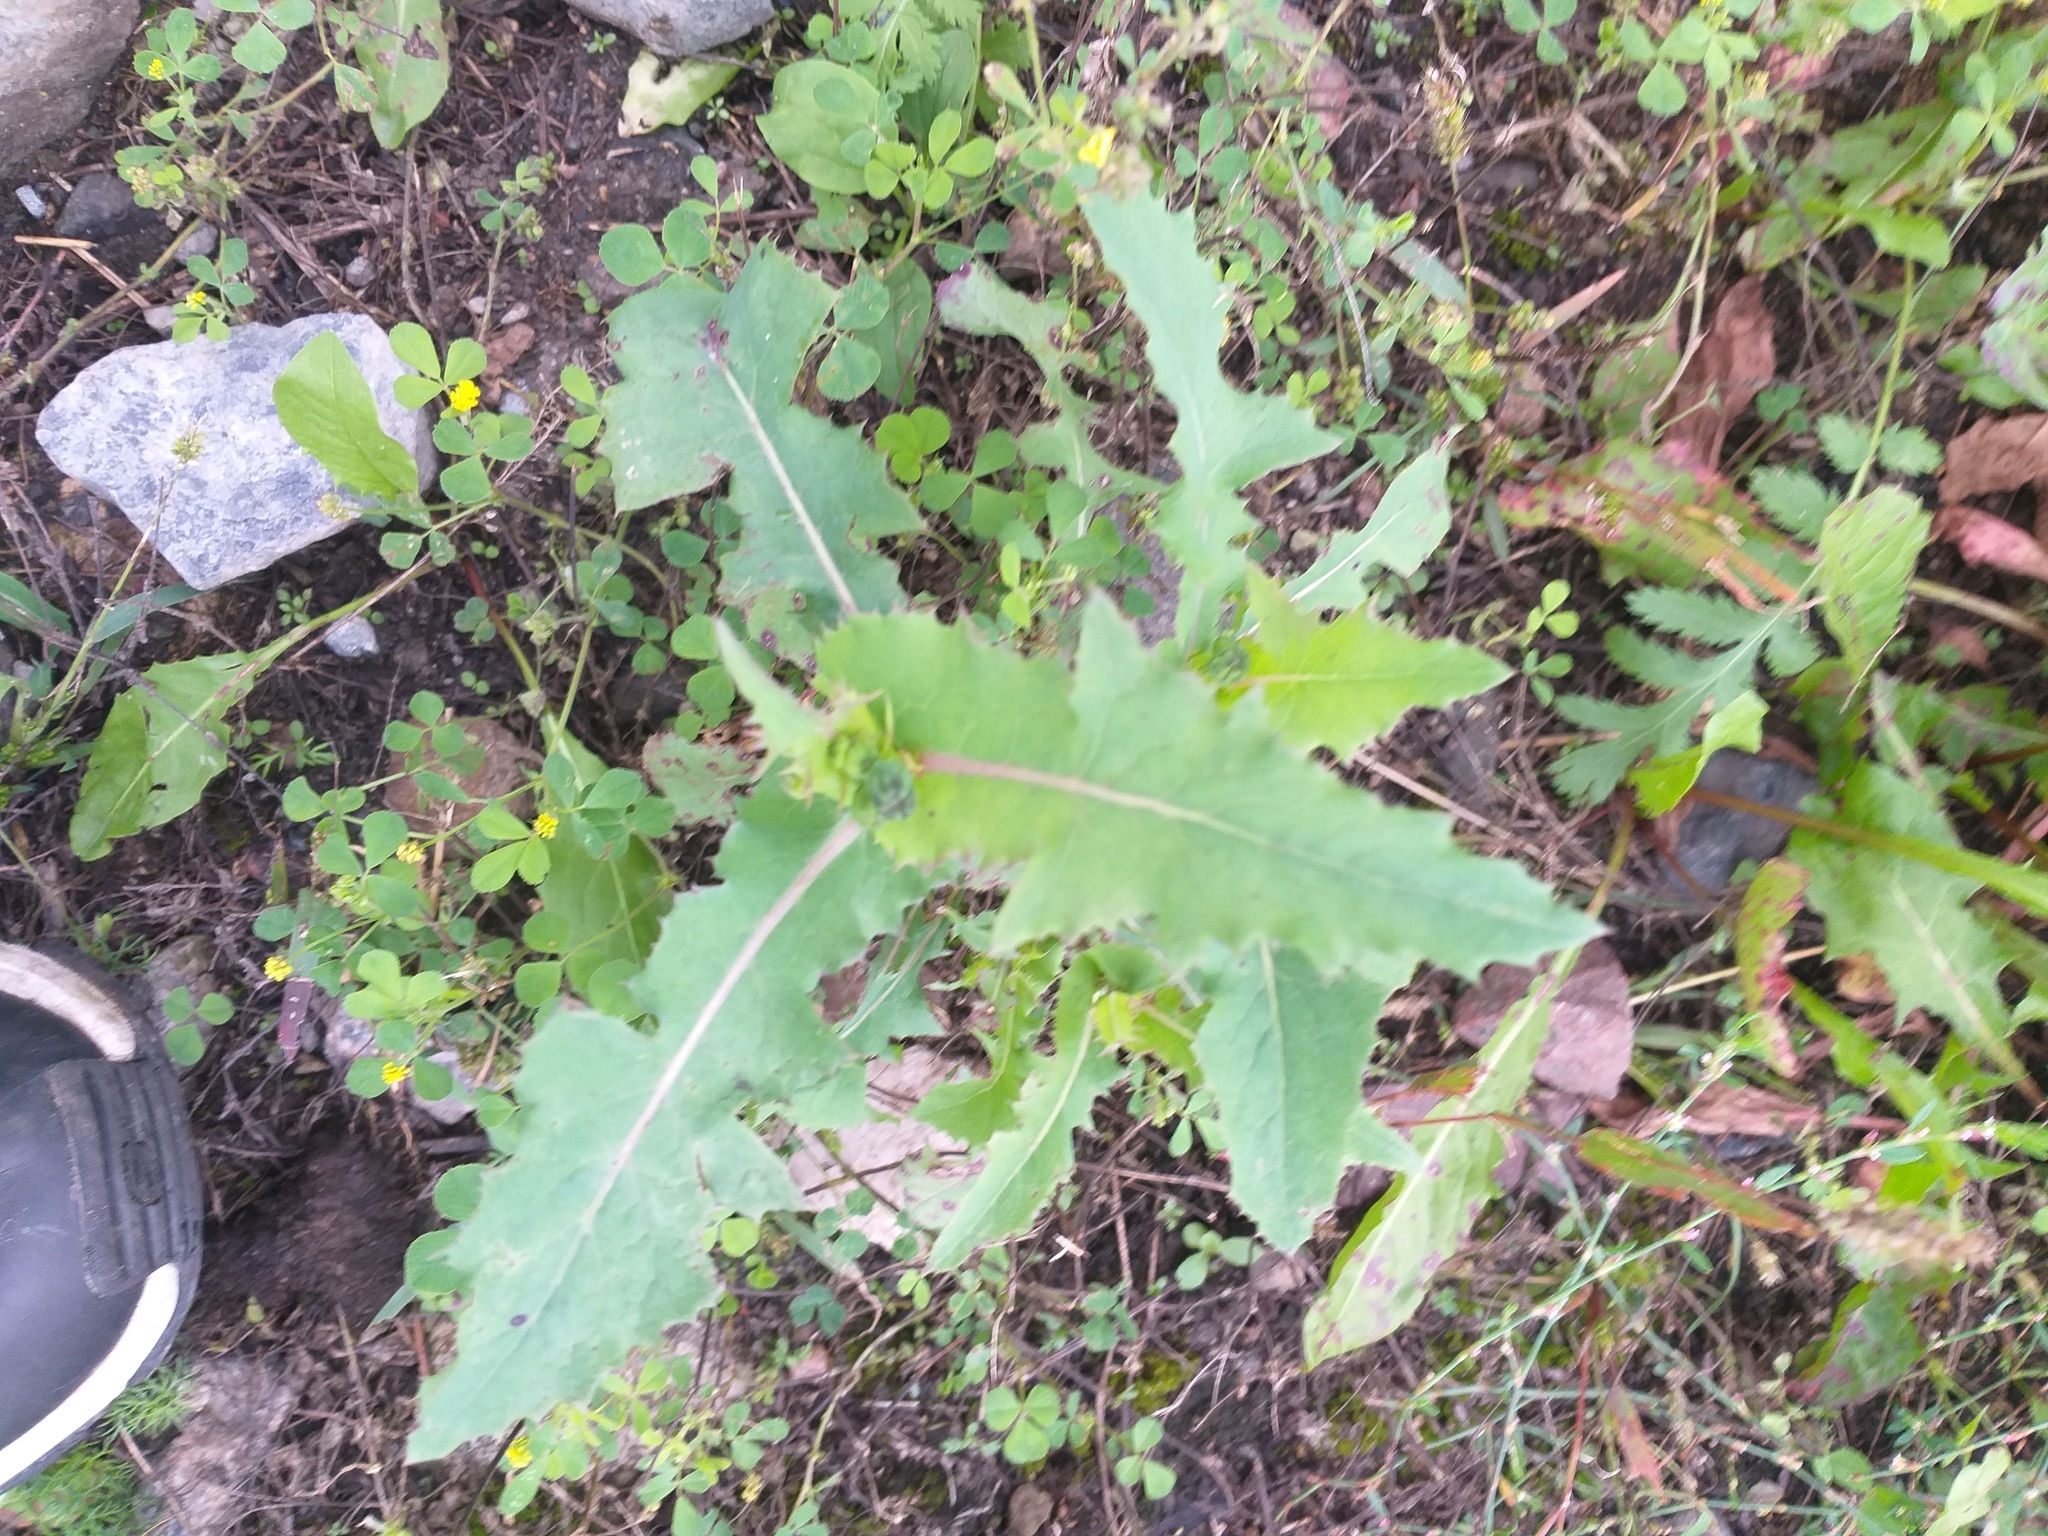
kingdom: Plantae
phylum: Tracheophyta
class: Magnoliopsida
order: Asterales
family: Asteraceae
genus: Sonchus
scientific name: Sonchus oleraceus
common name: Common sowthistle
